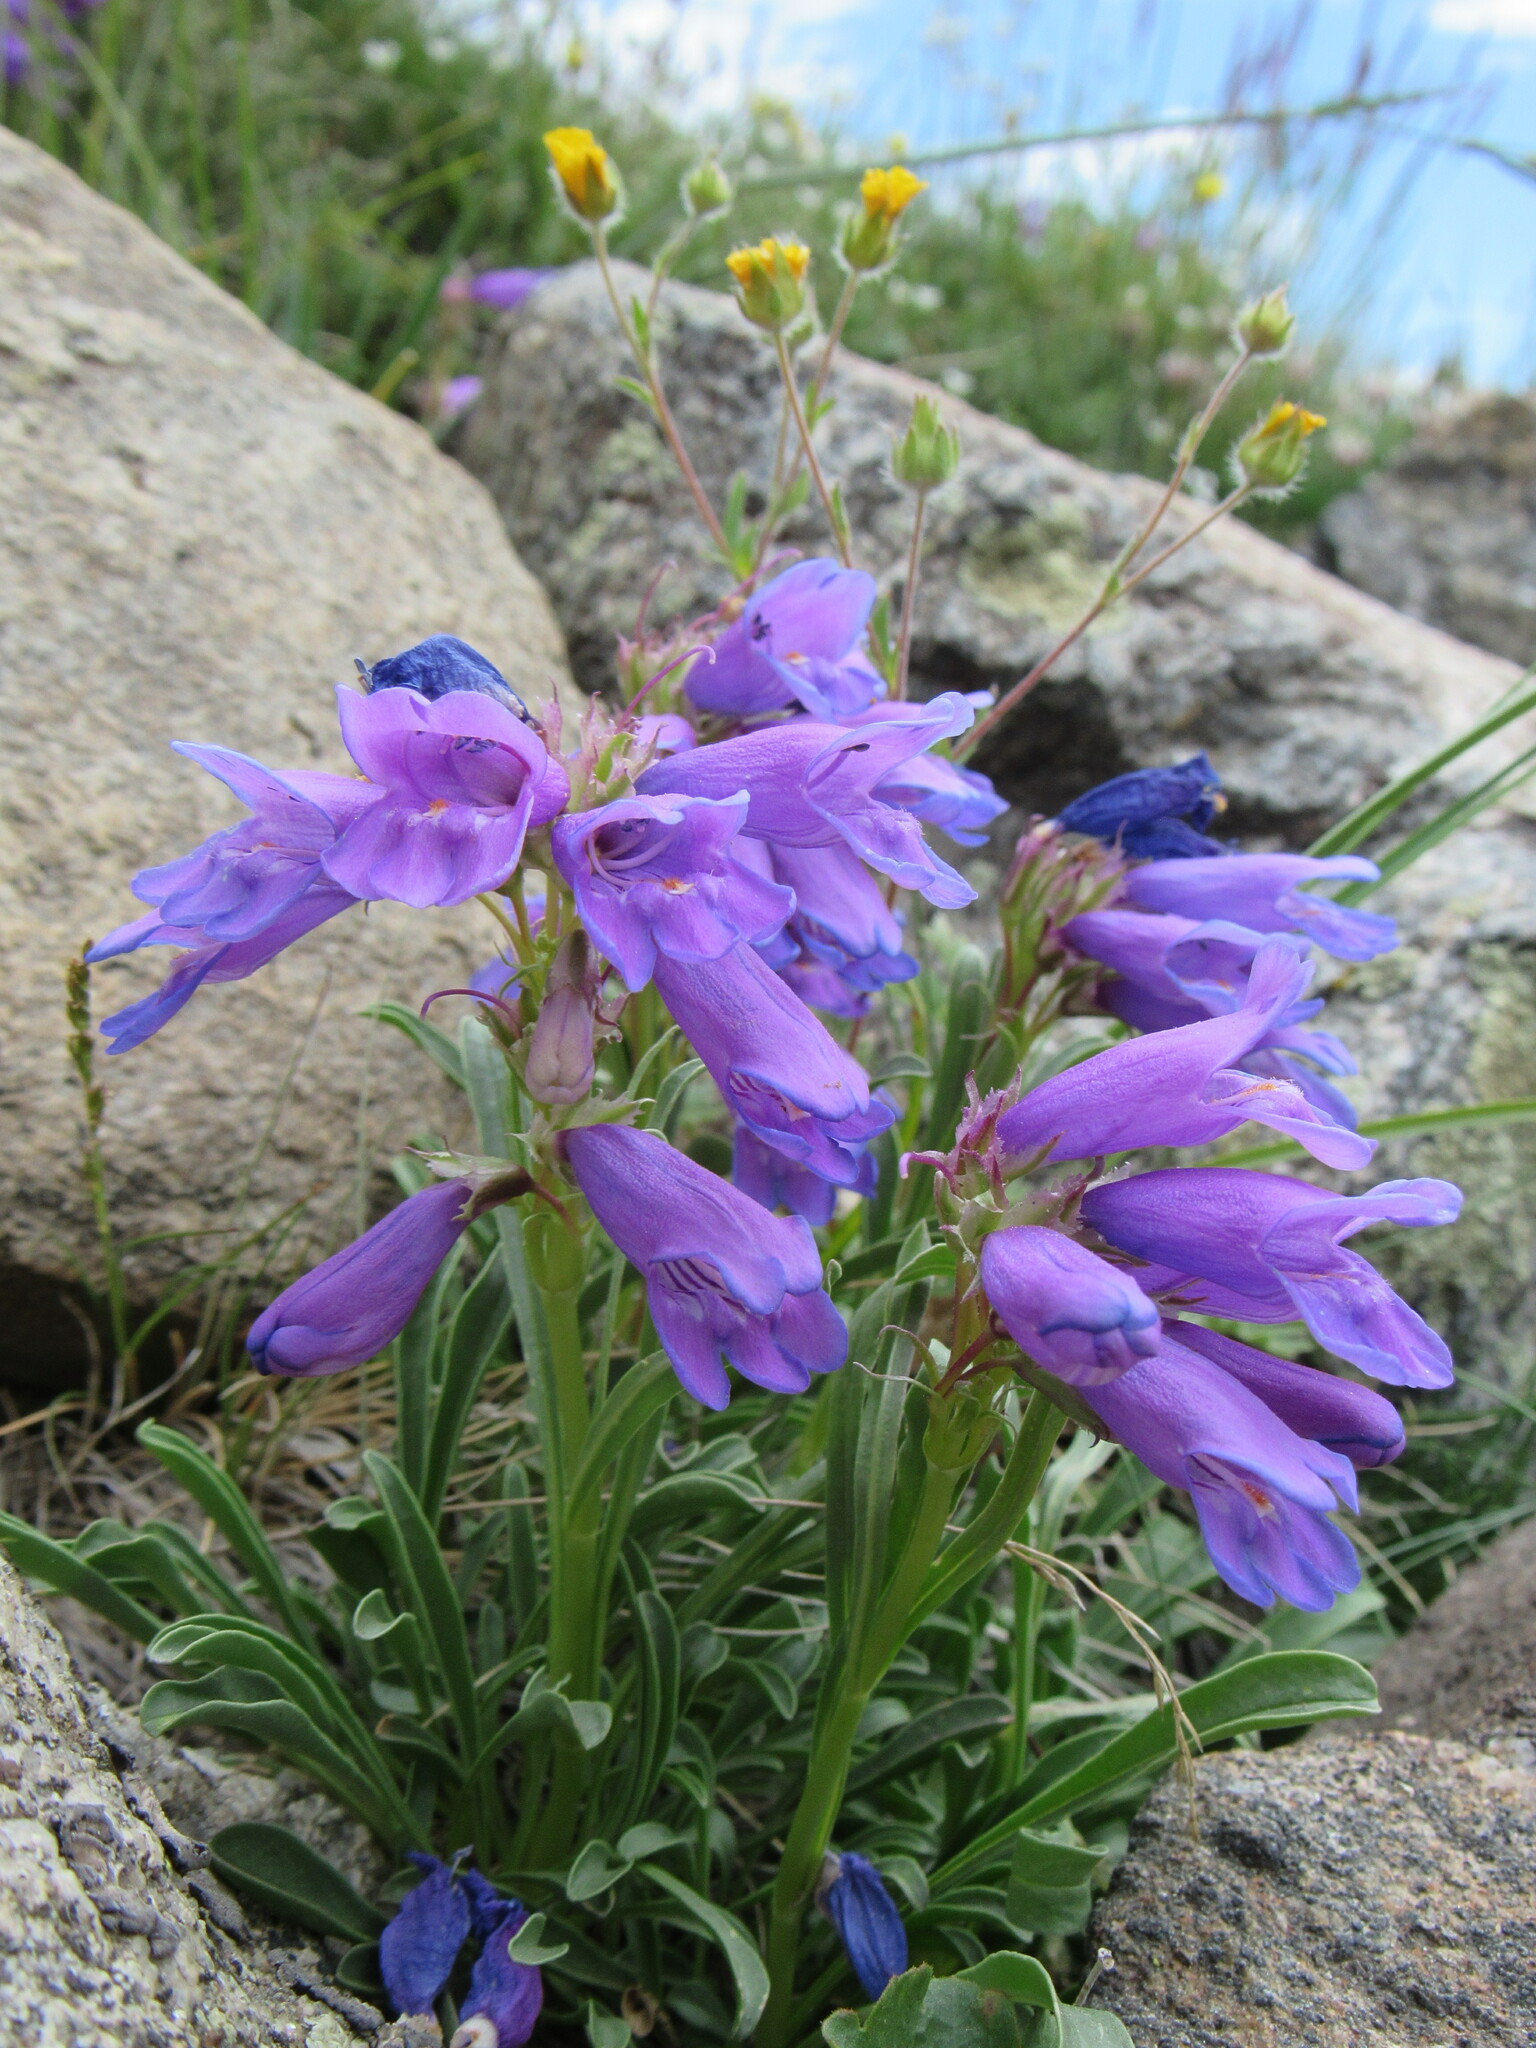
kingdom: Plantae
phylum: Tracheophyta
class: Magnoliopsida
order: Lamiales
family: Plantaginaceae
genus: Penstemon
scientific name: Penstemon hallii
